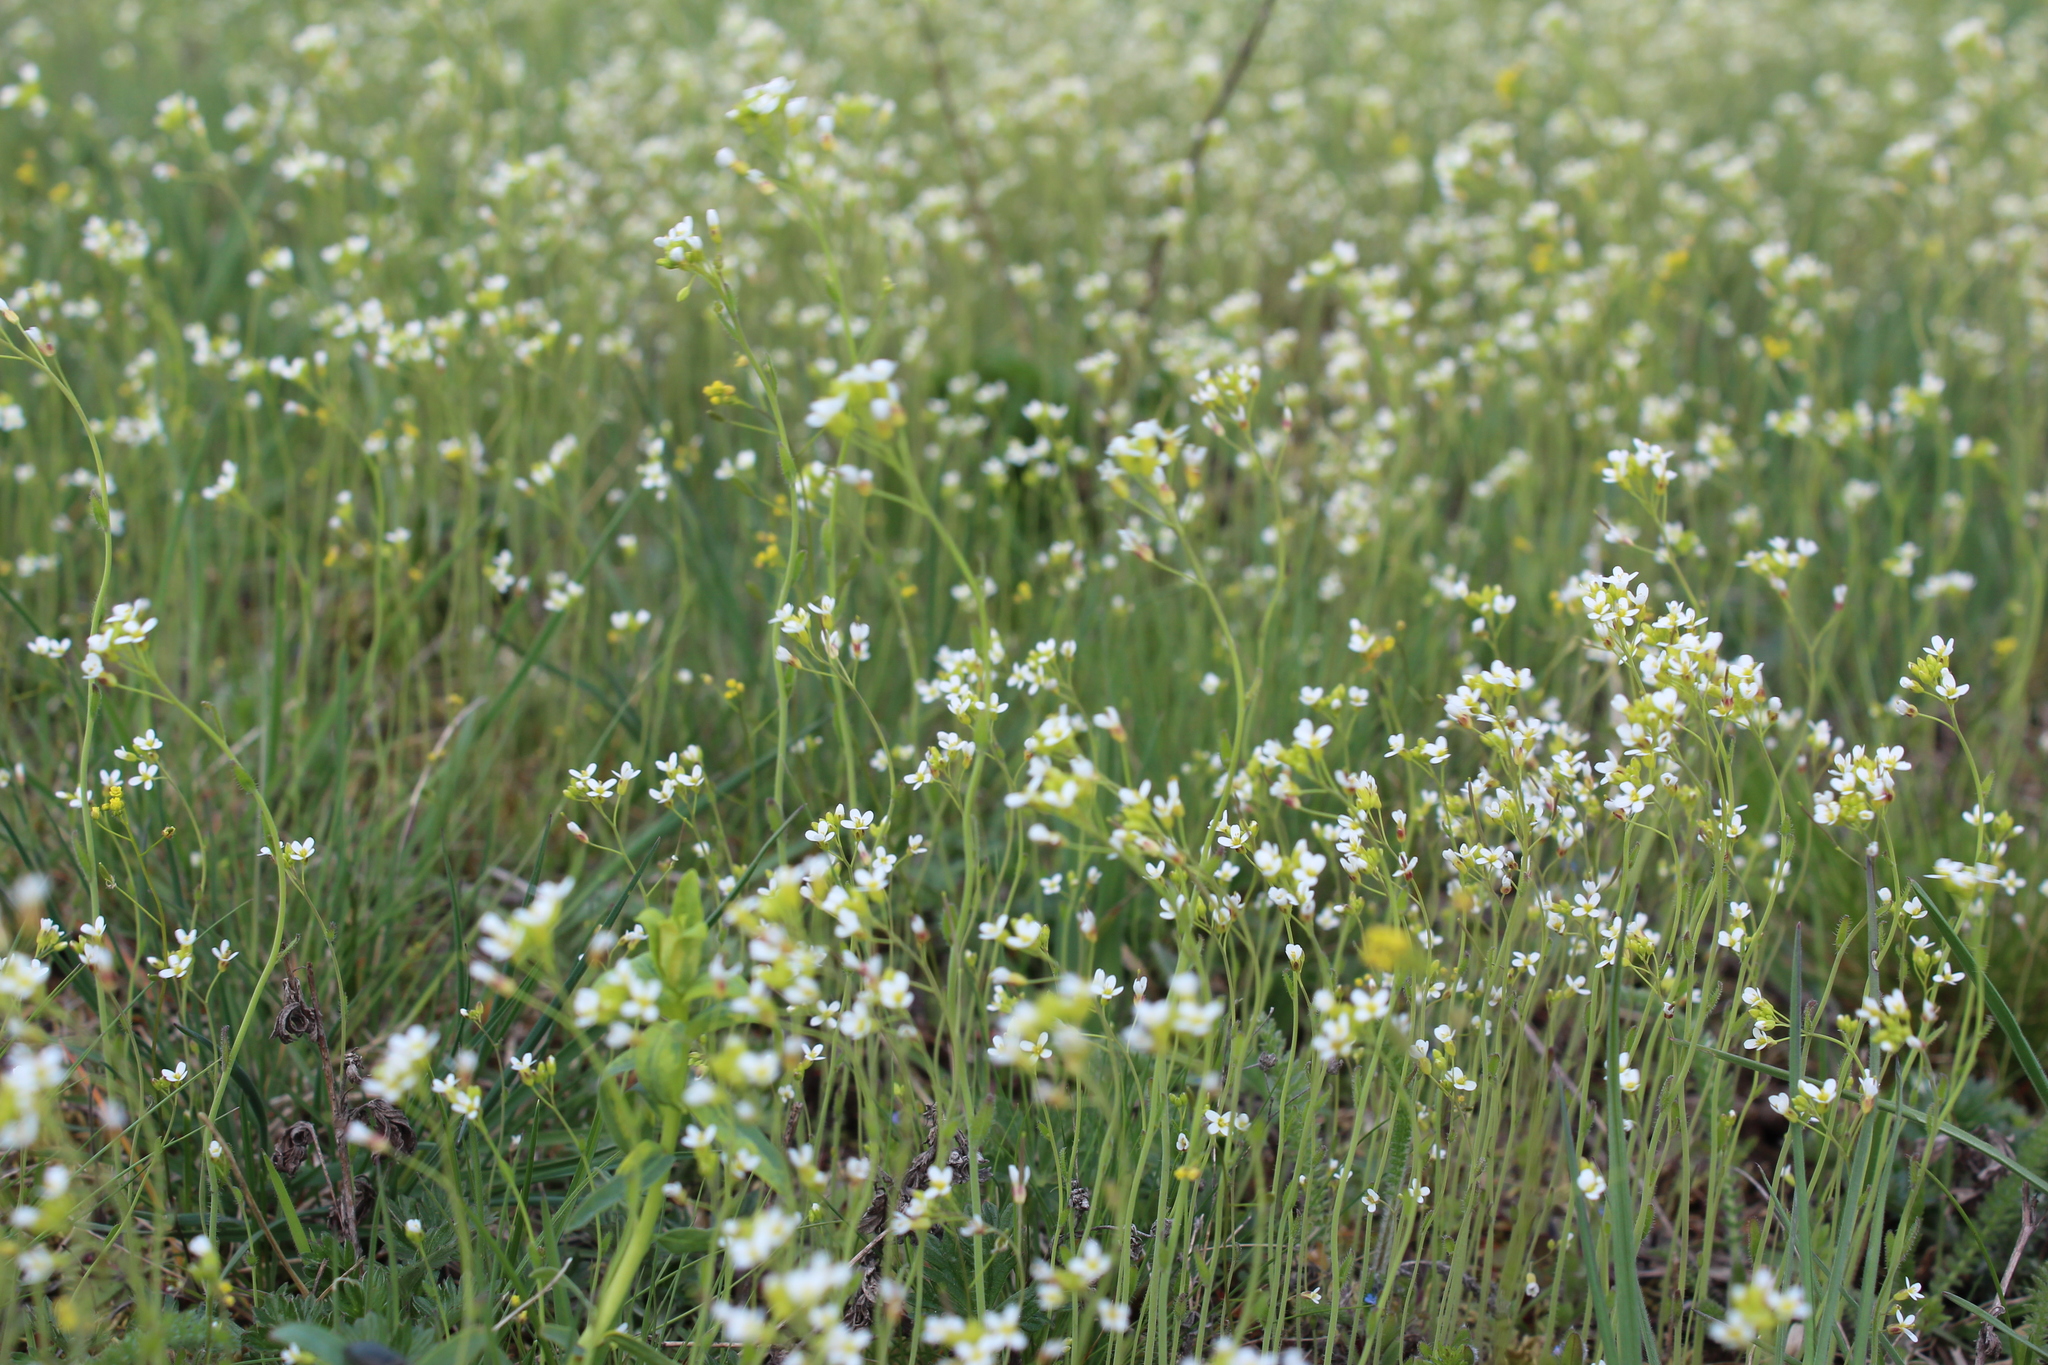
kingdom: Plantae
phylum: Tracheophyta
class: Magnoliopsida
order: Brassicales
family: Brassicaceae
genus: Arabidopsis
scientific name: Arabidopsis thaliana
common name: Thale cress
